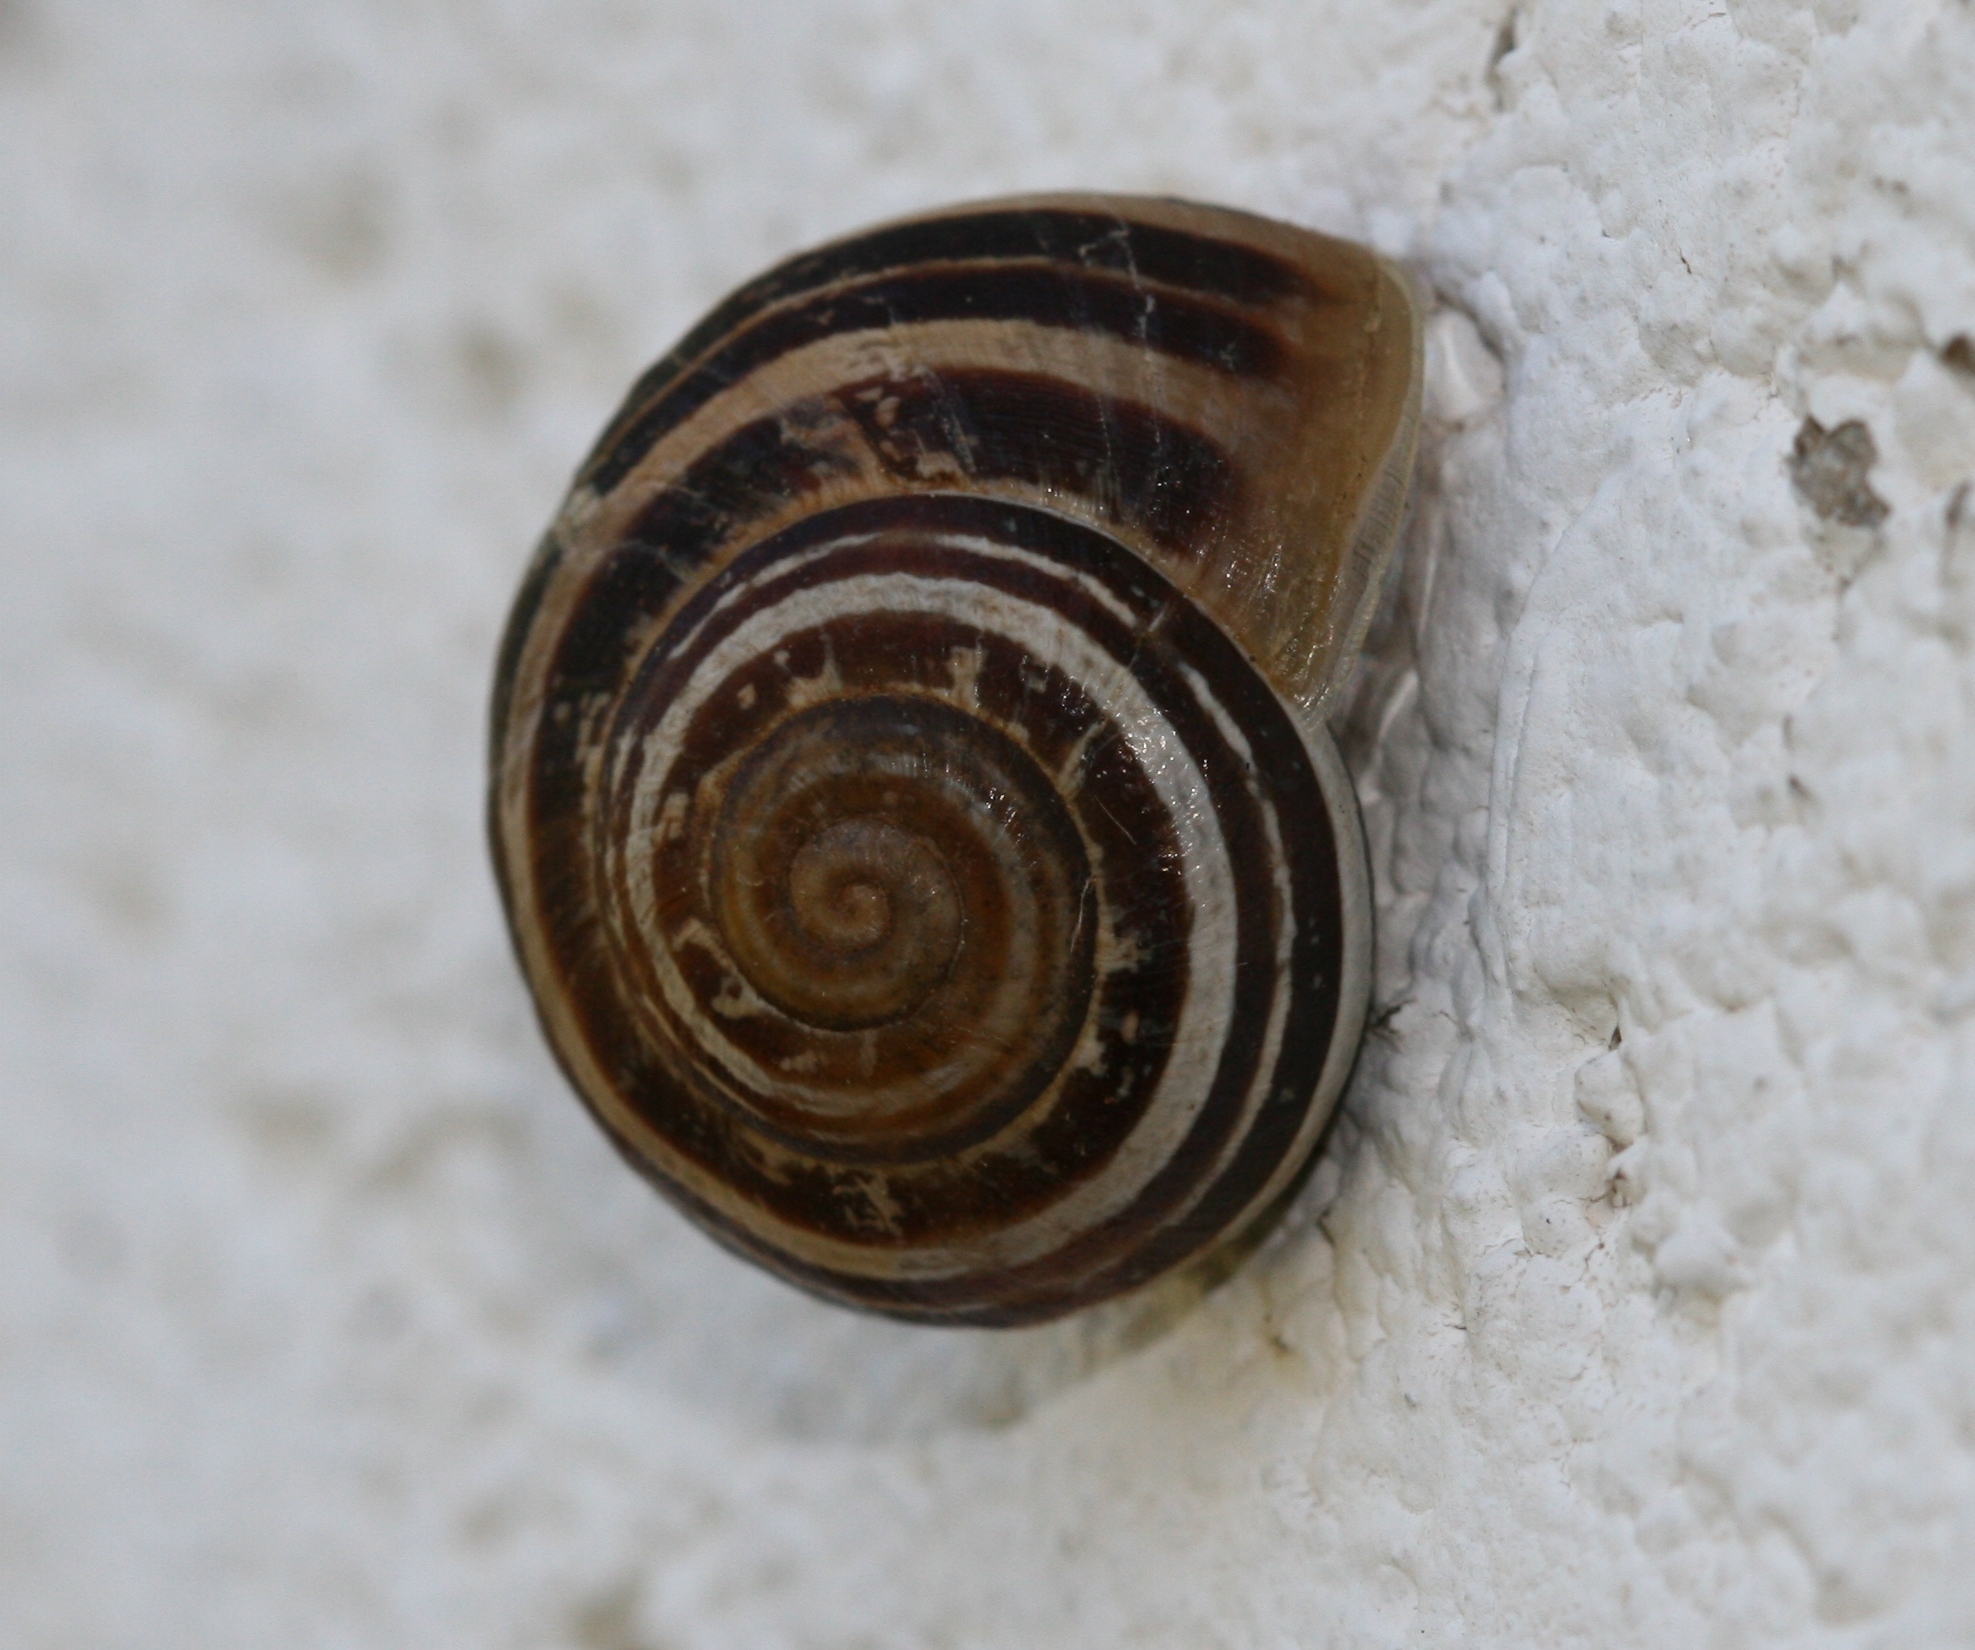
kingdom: Animalia
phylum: Mollusca
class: Gastropoda
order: Stylommatophora
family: Helicidae
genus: Eobania
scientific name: Eobania vermiculata
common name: Chocolateband snail
